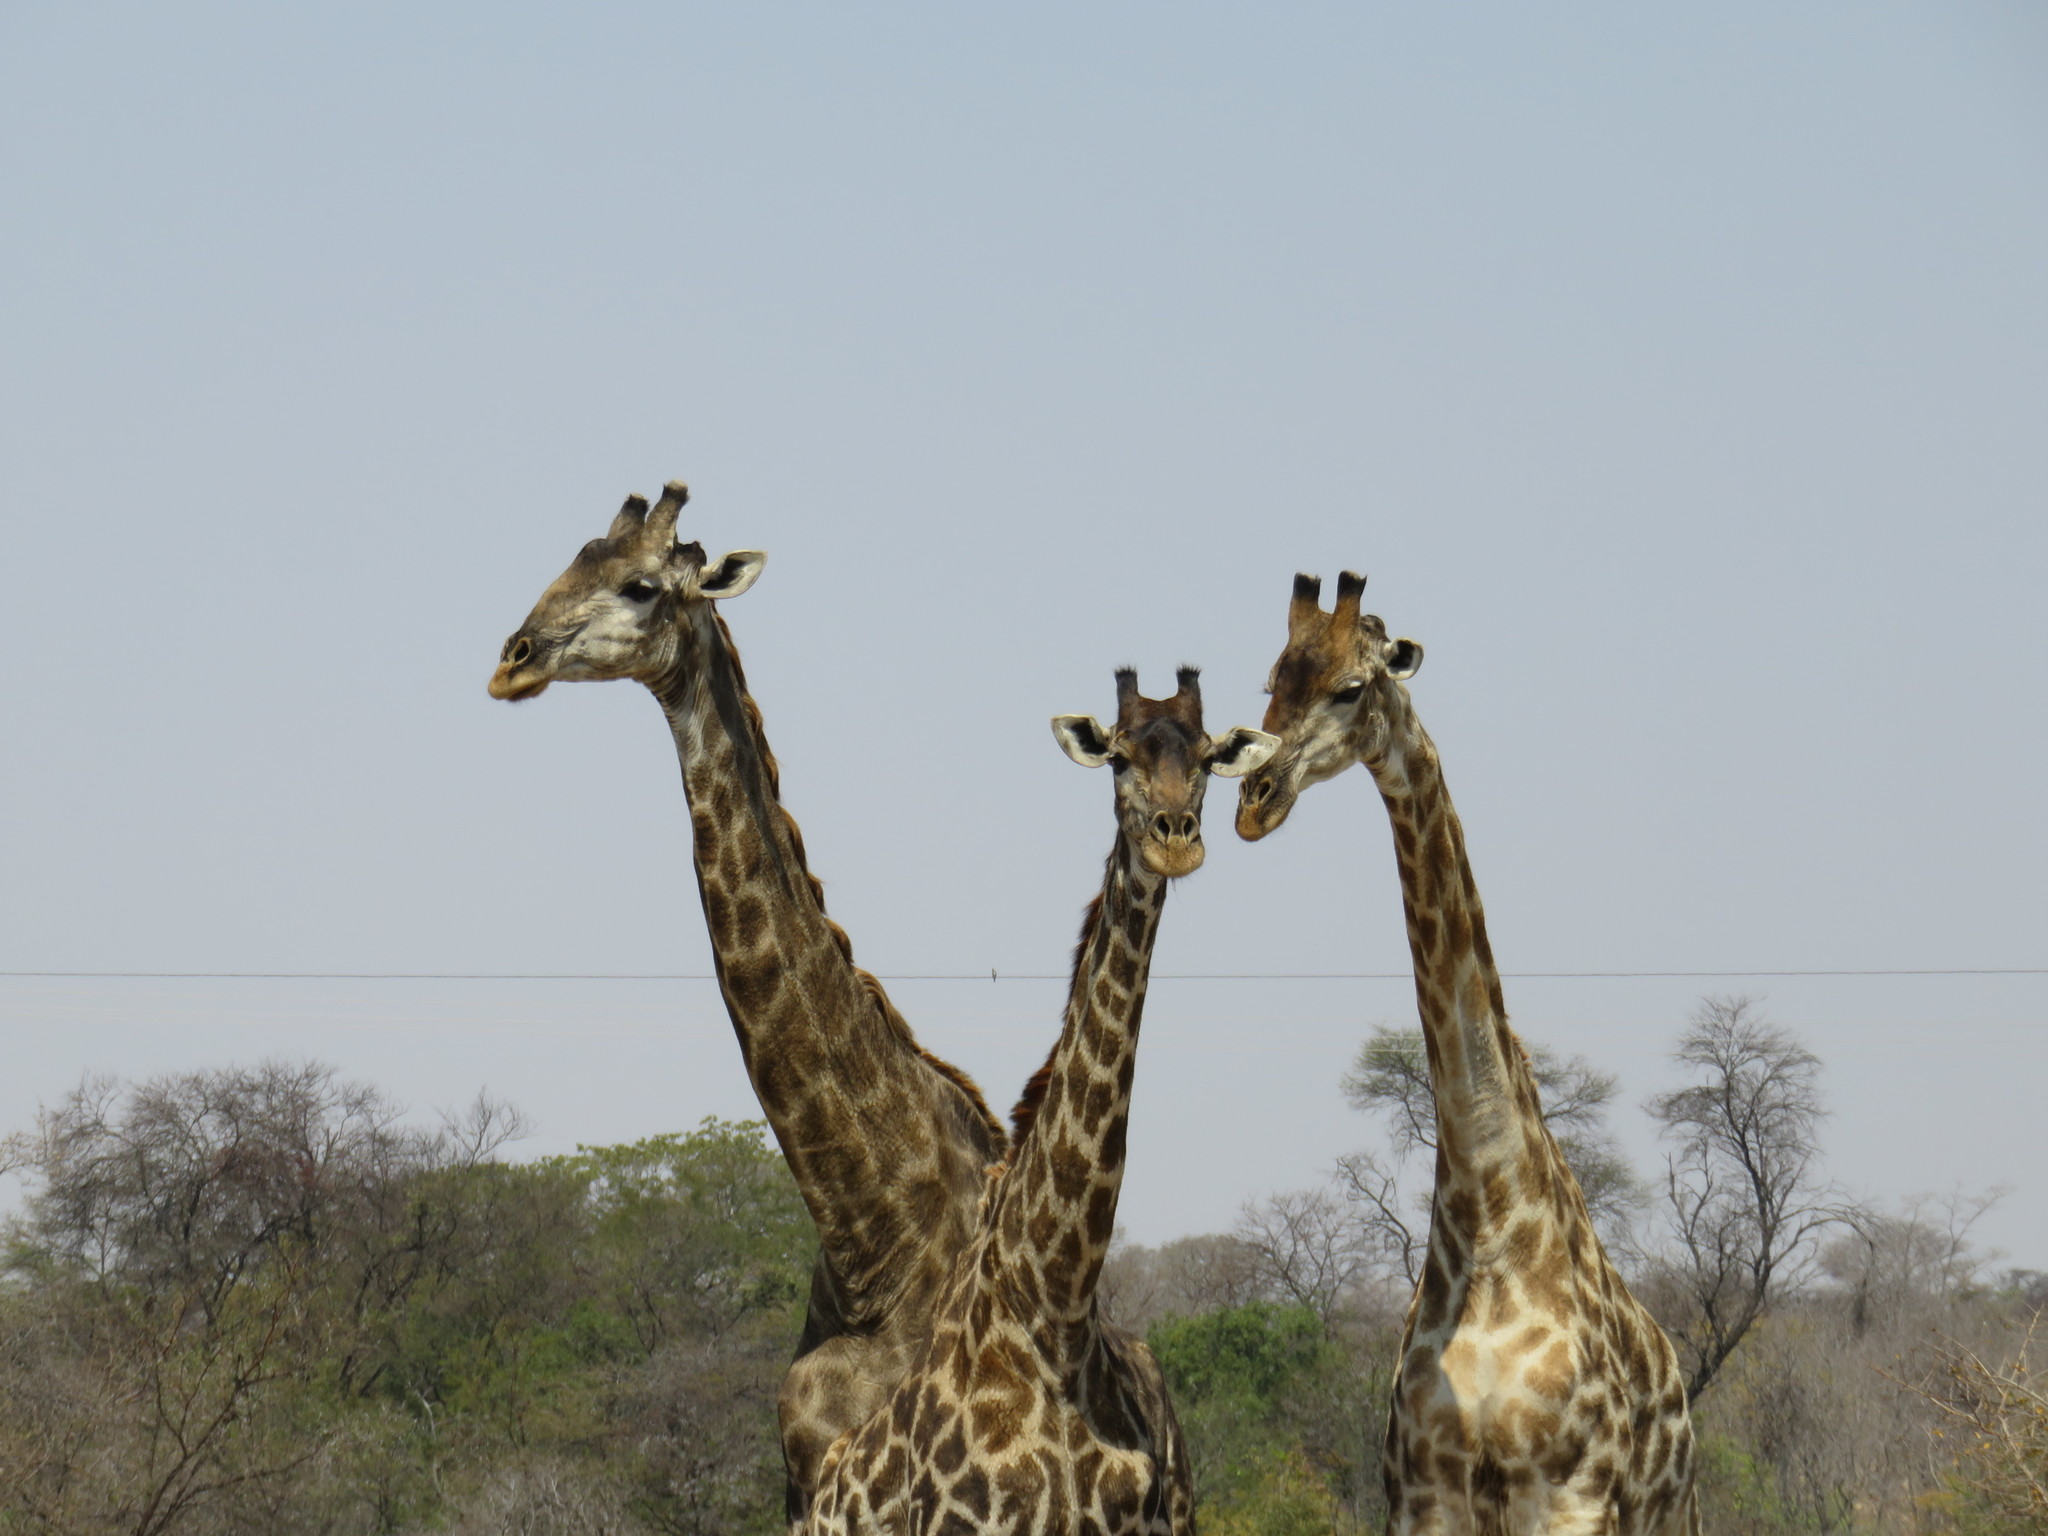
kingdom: Animalia
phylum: Chordata
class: Mammalia
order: Artiodactyla
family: Giraffidae
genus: Giraffa
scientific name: Giraffa giraffa
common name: Southern giraffe
